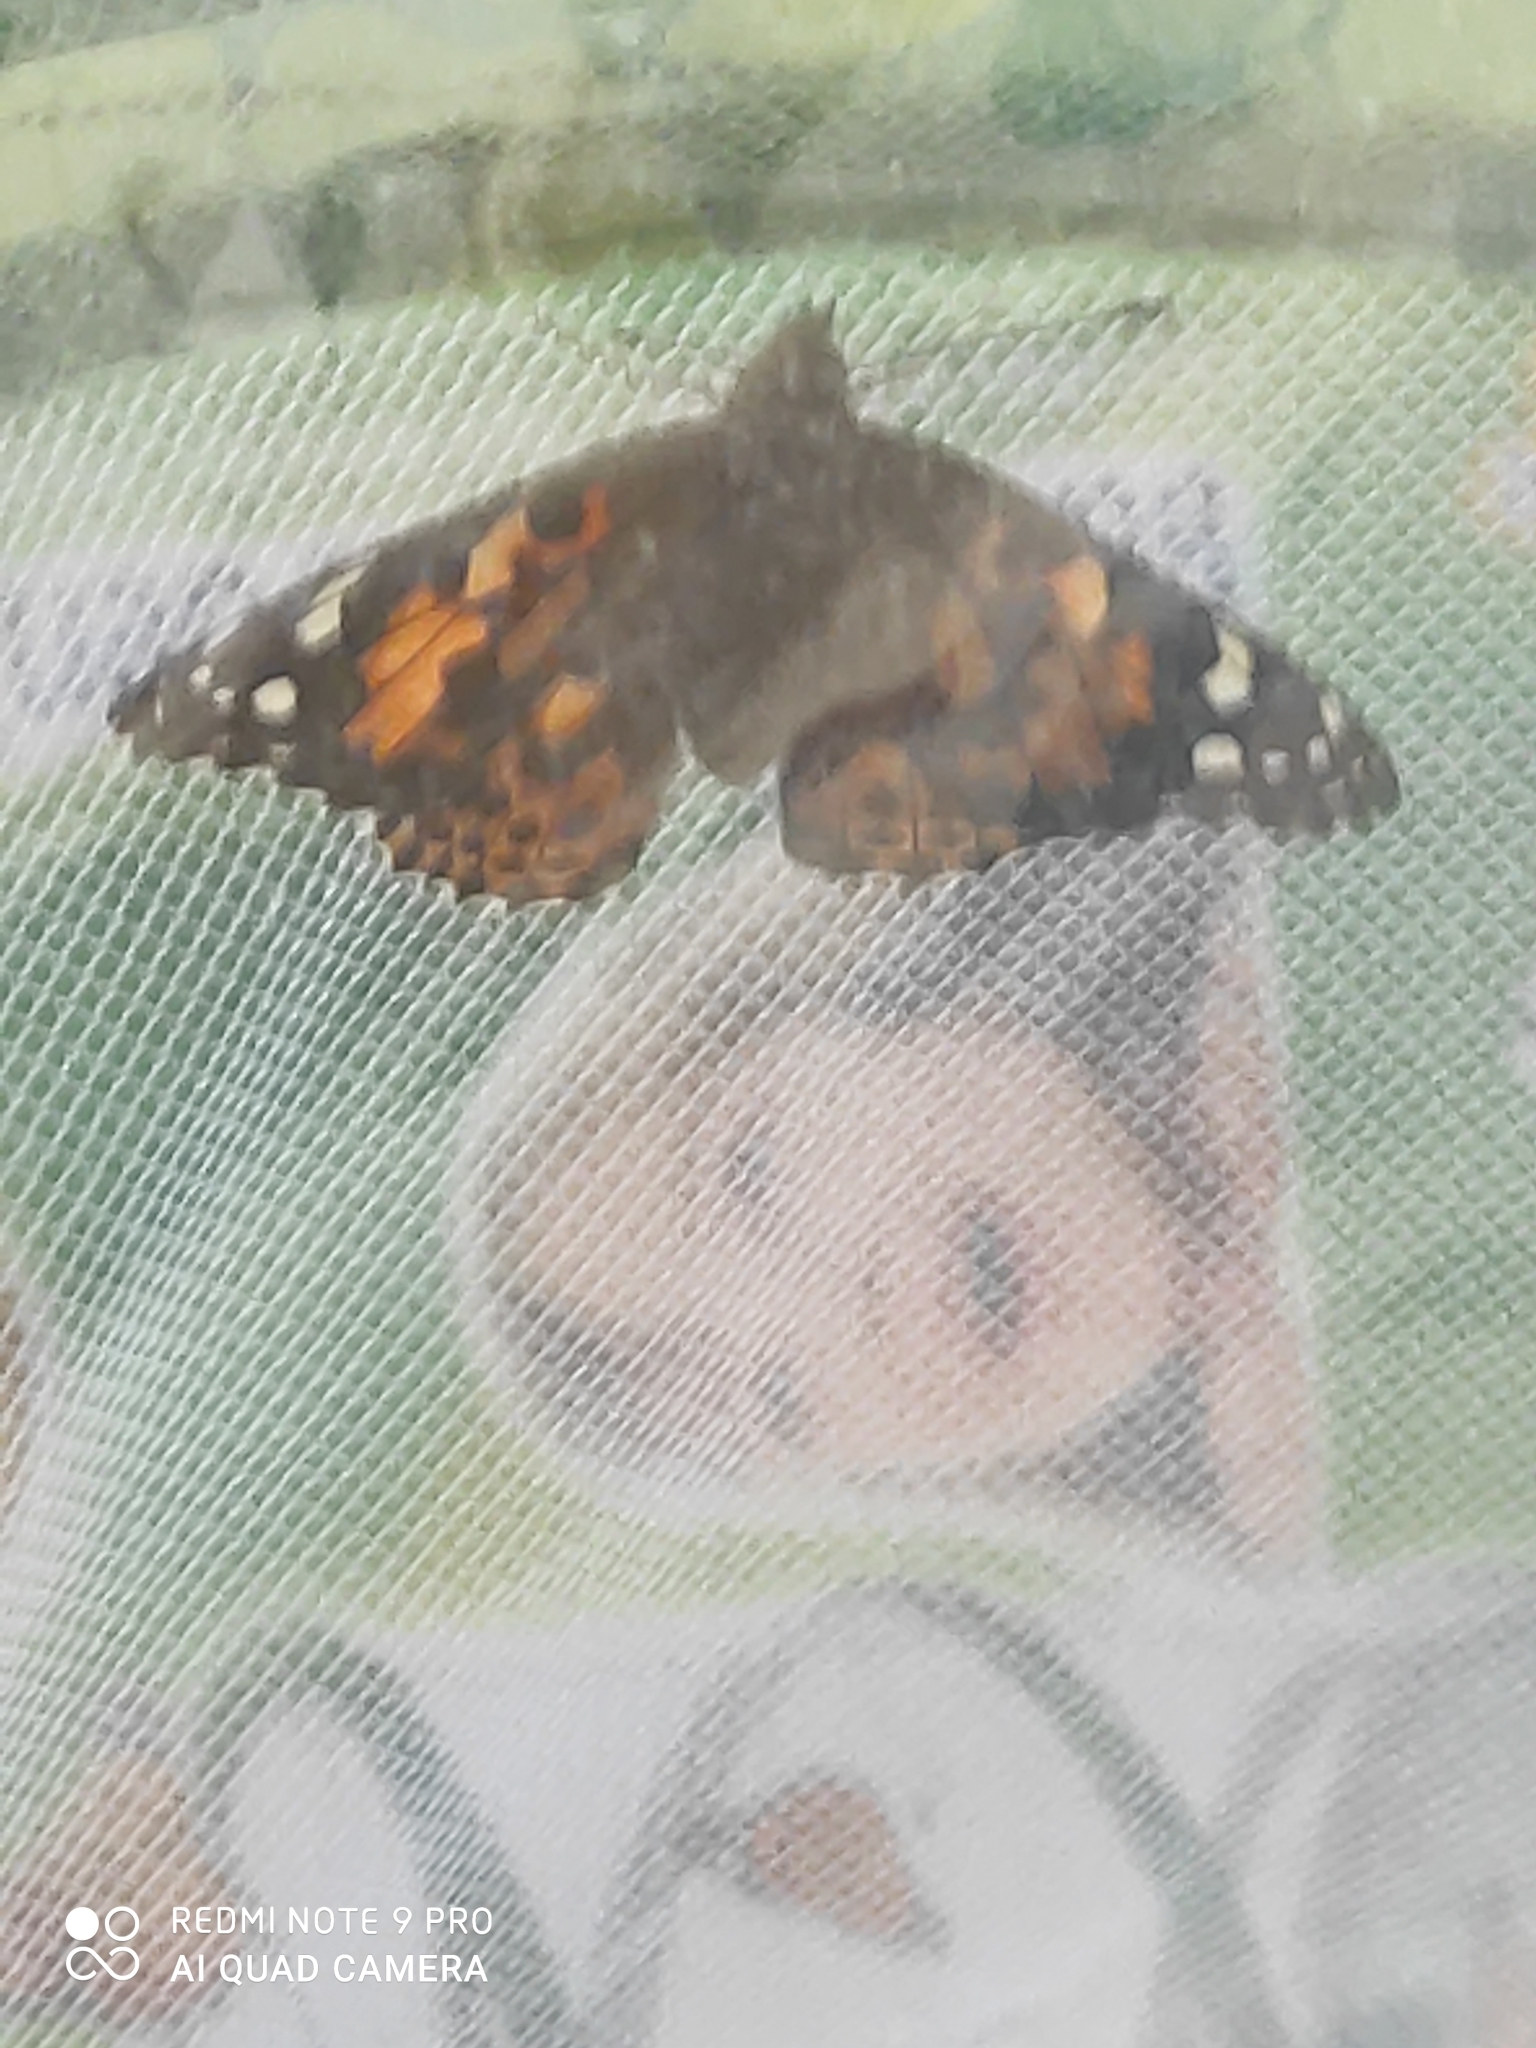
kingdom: Animalia
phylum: Arthropoda
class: Insecta
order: Lepidoptera
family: Nymphalidae
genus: Vanessa
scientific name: Vanessa cardui
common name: Painted lady
